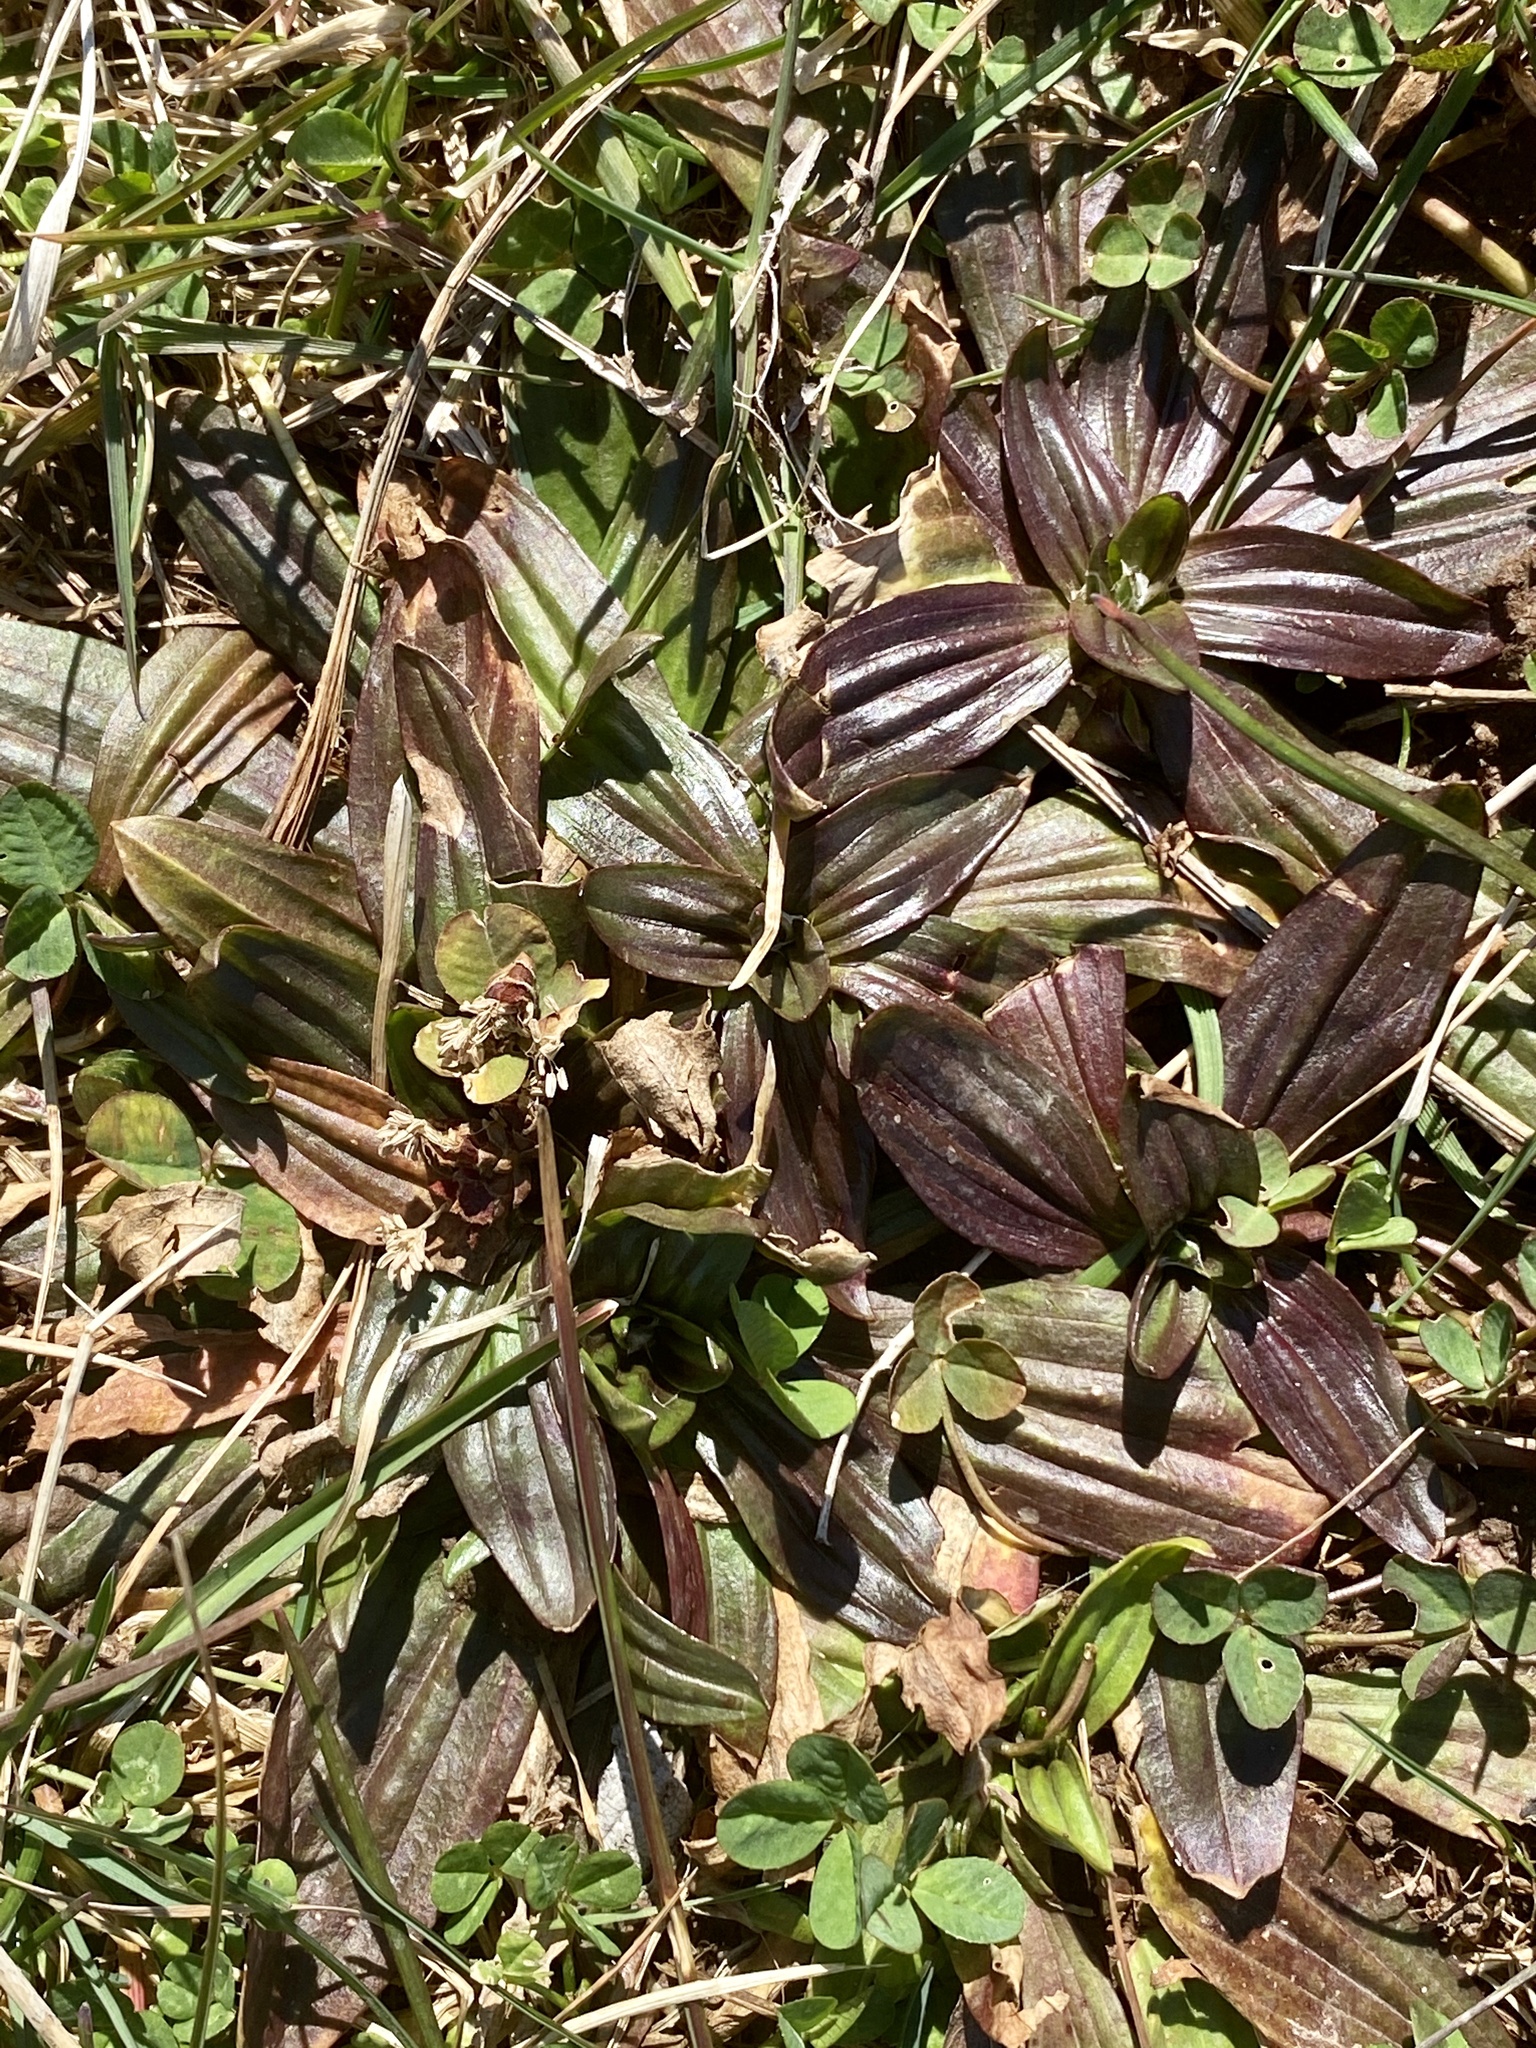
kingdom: Plantae
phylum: Tracheophyta
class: Magnoliopsida
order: Lamiales
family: Plantaginaceae
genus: Plantago
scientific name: Plantago lanceolata
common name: Ribwort plantain
